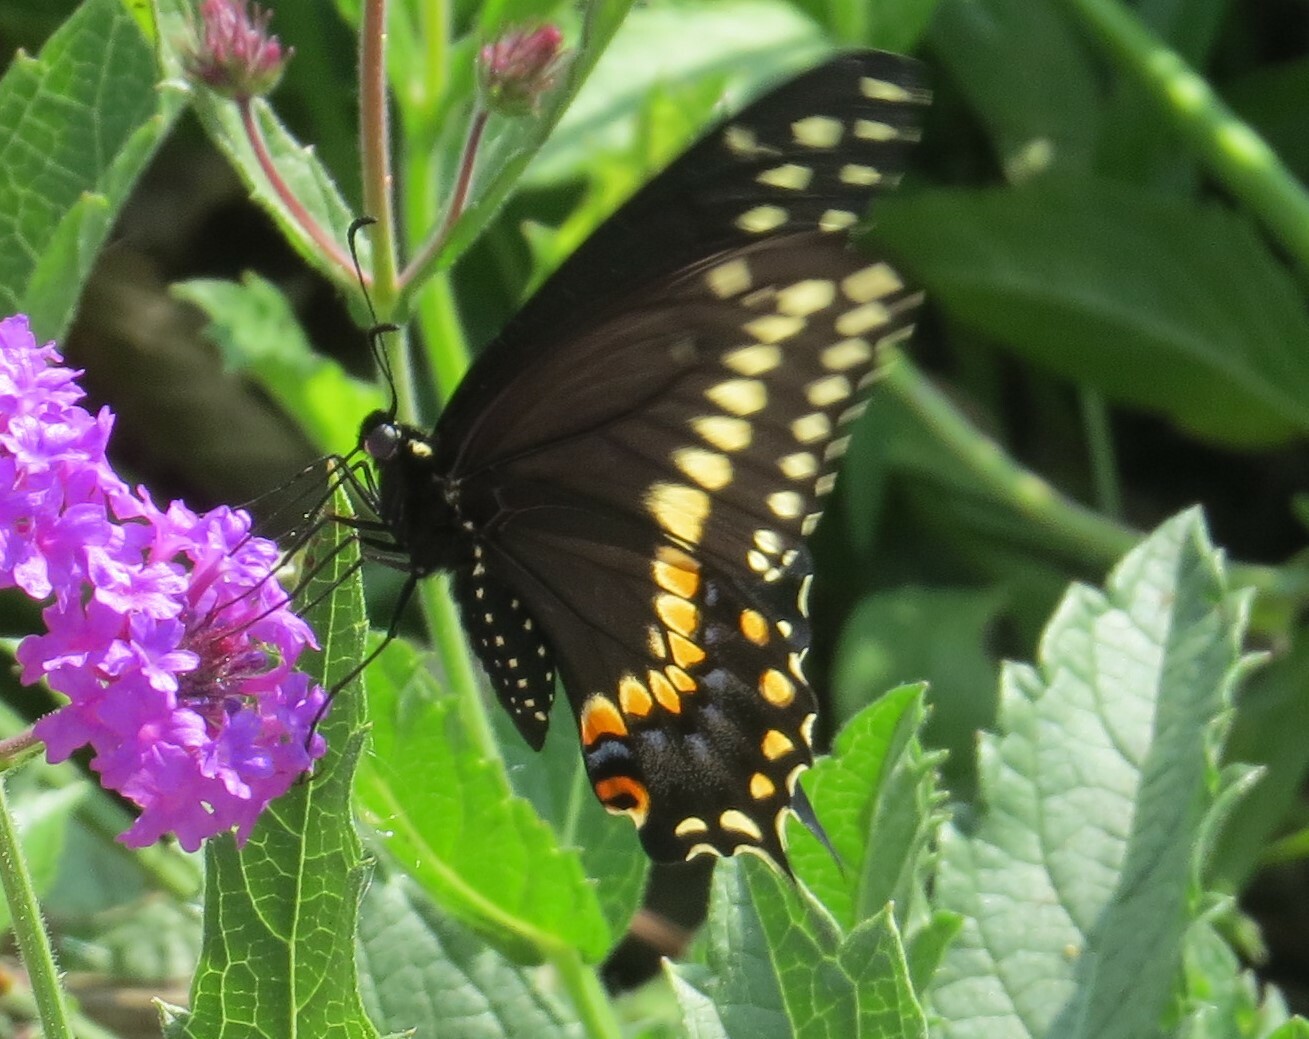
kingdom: Animalia
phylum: Arthropoda
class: Insecta
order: Lepidoptera
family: Papilionidae
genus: Papilio
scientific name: Papilio polyxenes
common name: Black swallowtail
